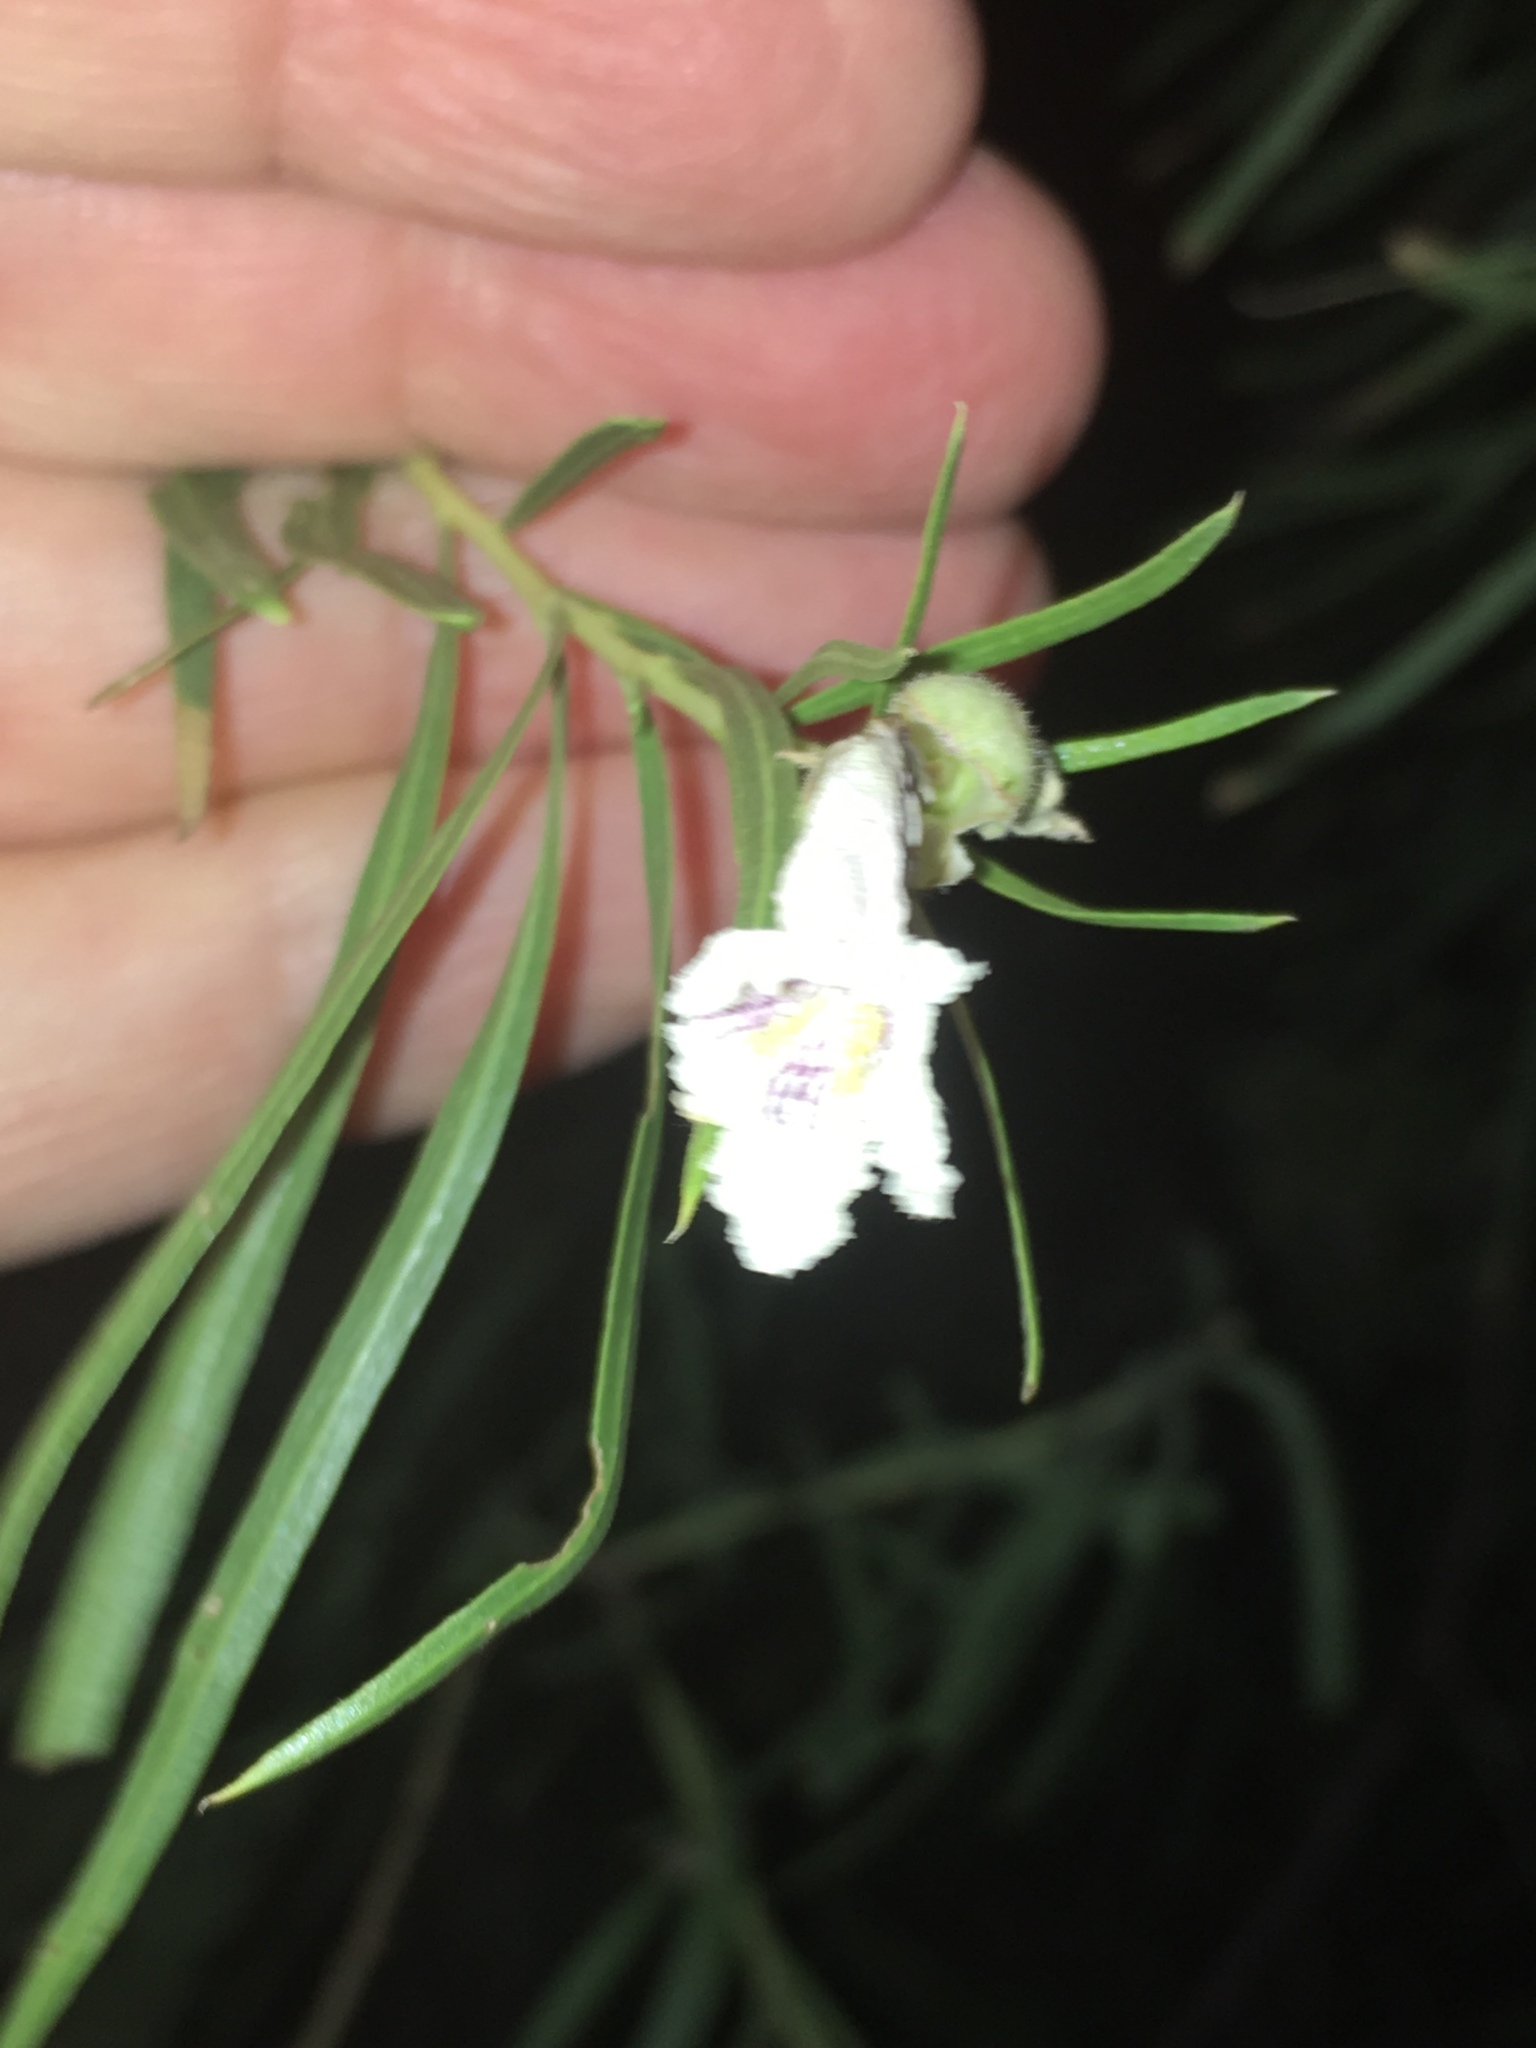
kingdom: Plantae
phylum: Tracheophyta
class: Magnoliopsida
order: Lamiales
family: Bignoniaceae
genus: Chilopsis
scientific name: Chilopsis linearis
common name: Desert-willow
